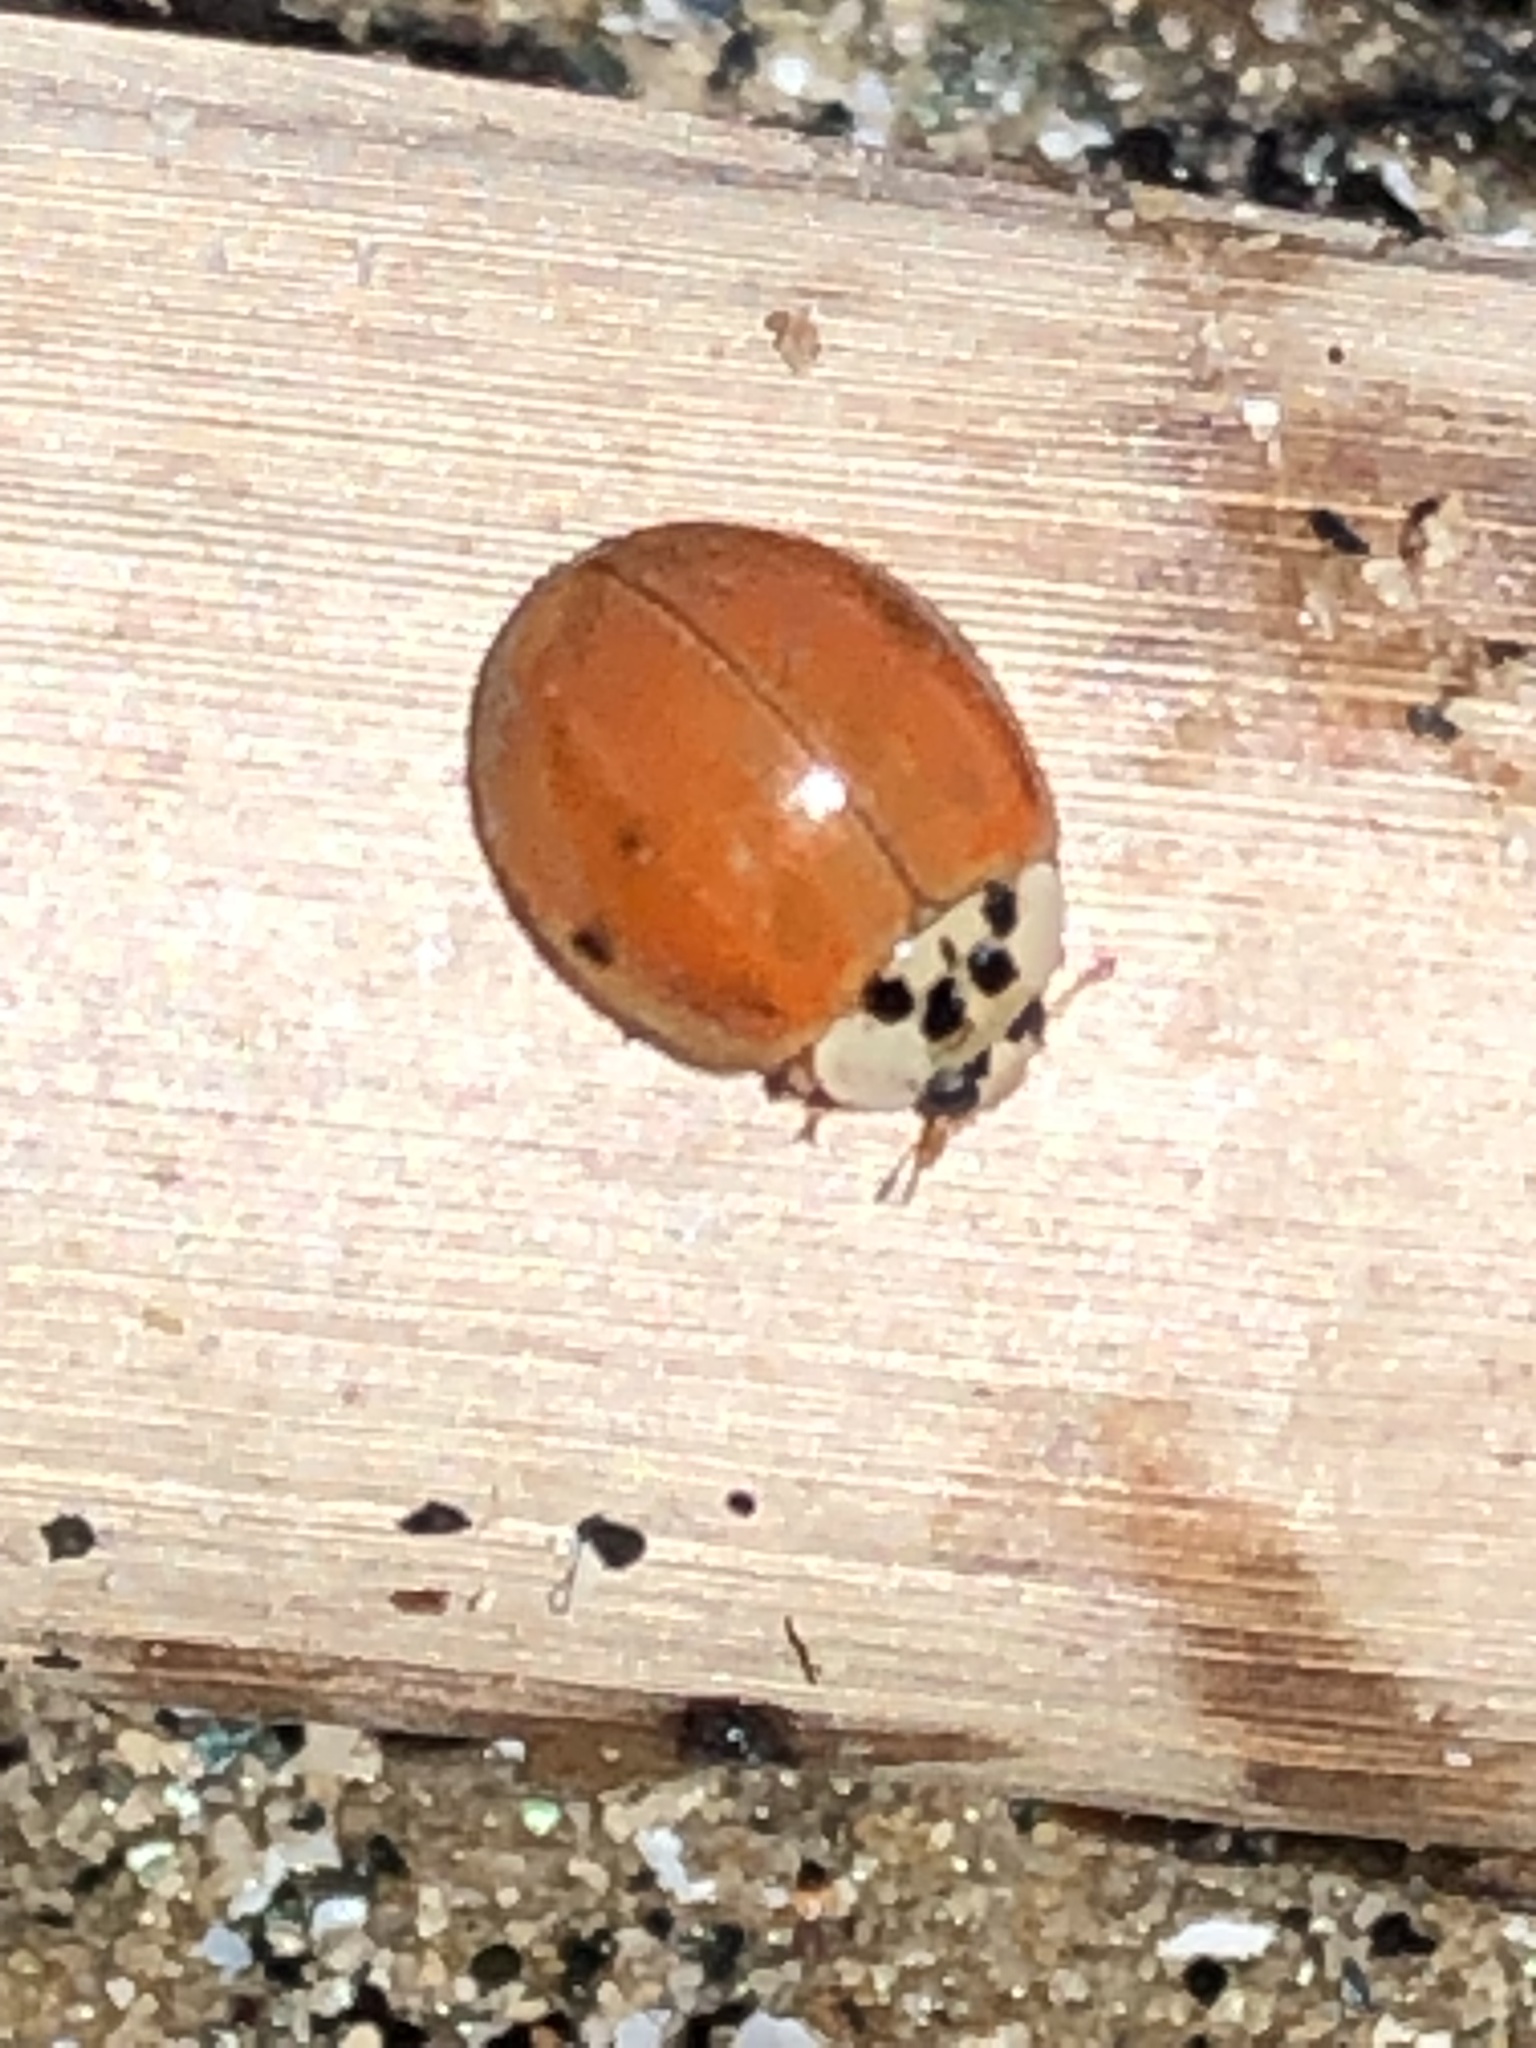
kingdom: Animalia
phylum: Arthropoda
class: Insecta
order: Coleoptera
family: Coccinellidae
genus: Harmonia
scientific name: Harmonia axyridis
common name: Harlequin ladybird
